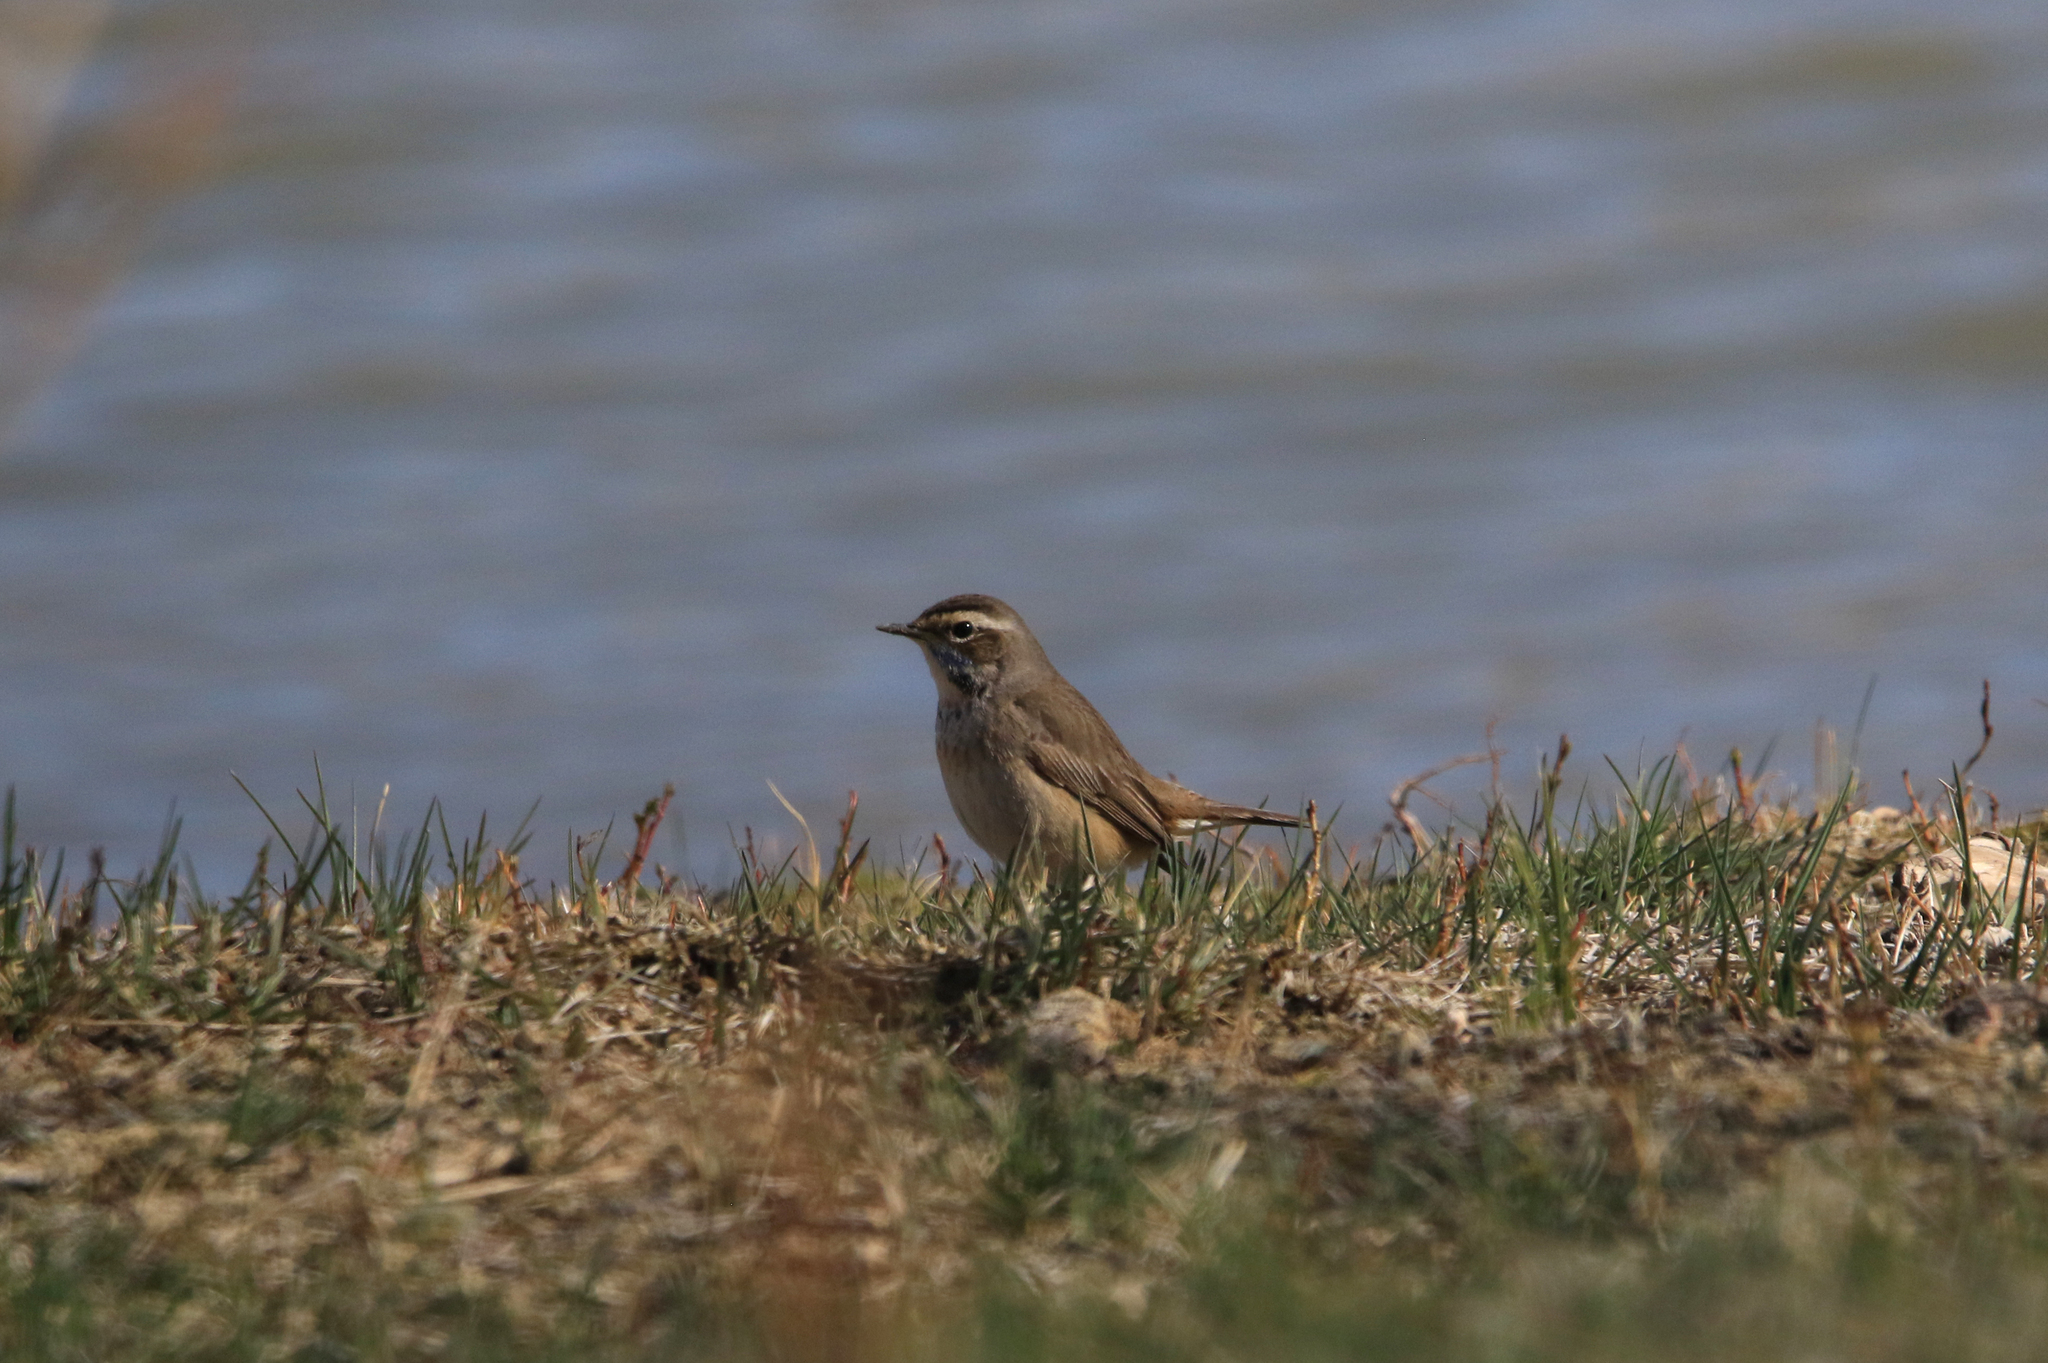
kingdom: Animalia
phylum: Chordata
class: Aves
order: Passeriformes
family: Muscicapidae
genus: Luscinia
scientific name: Luscinia svecica
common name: Bluethroat
